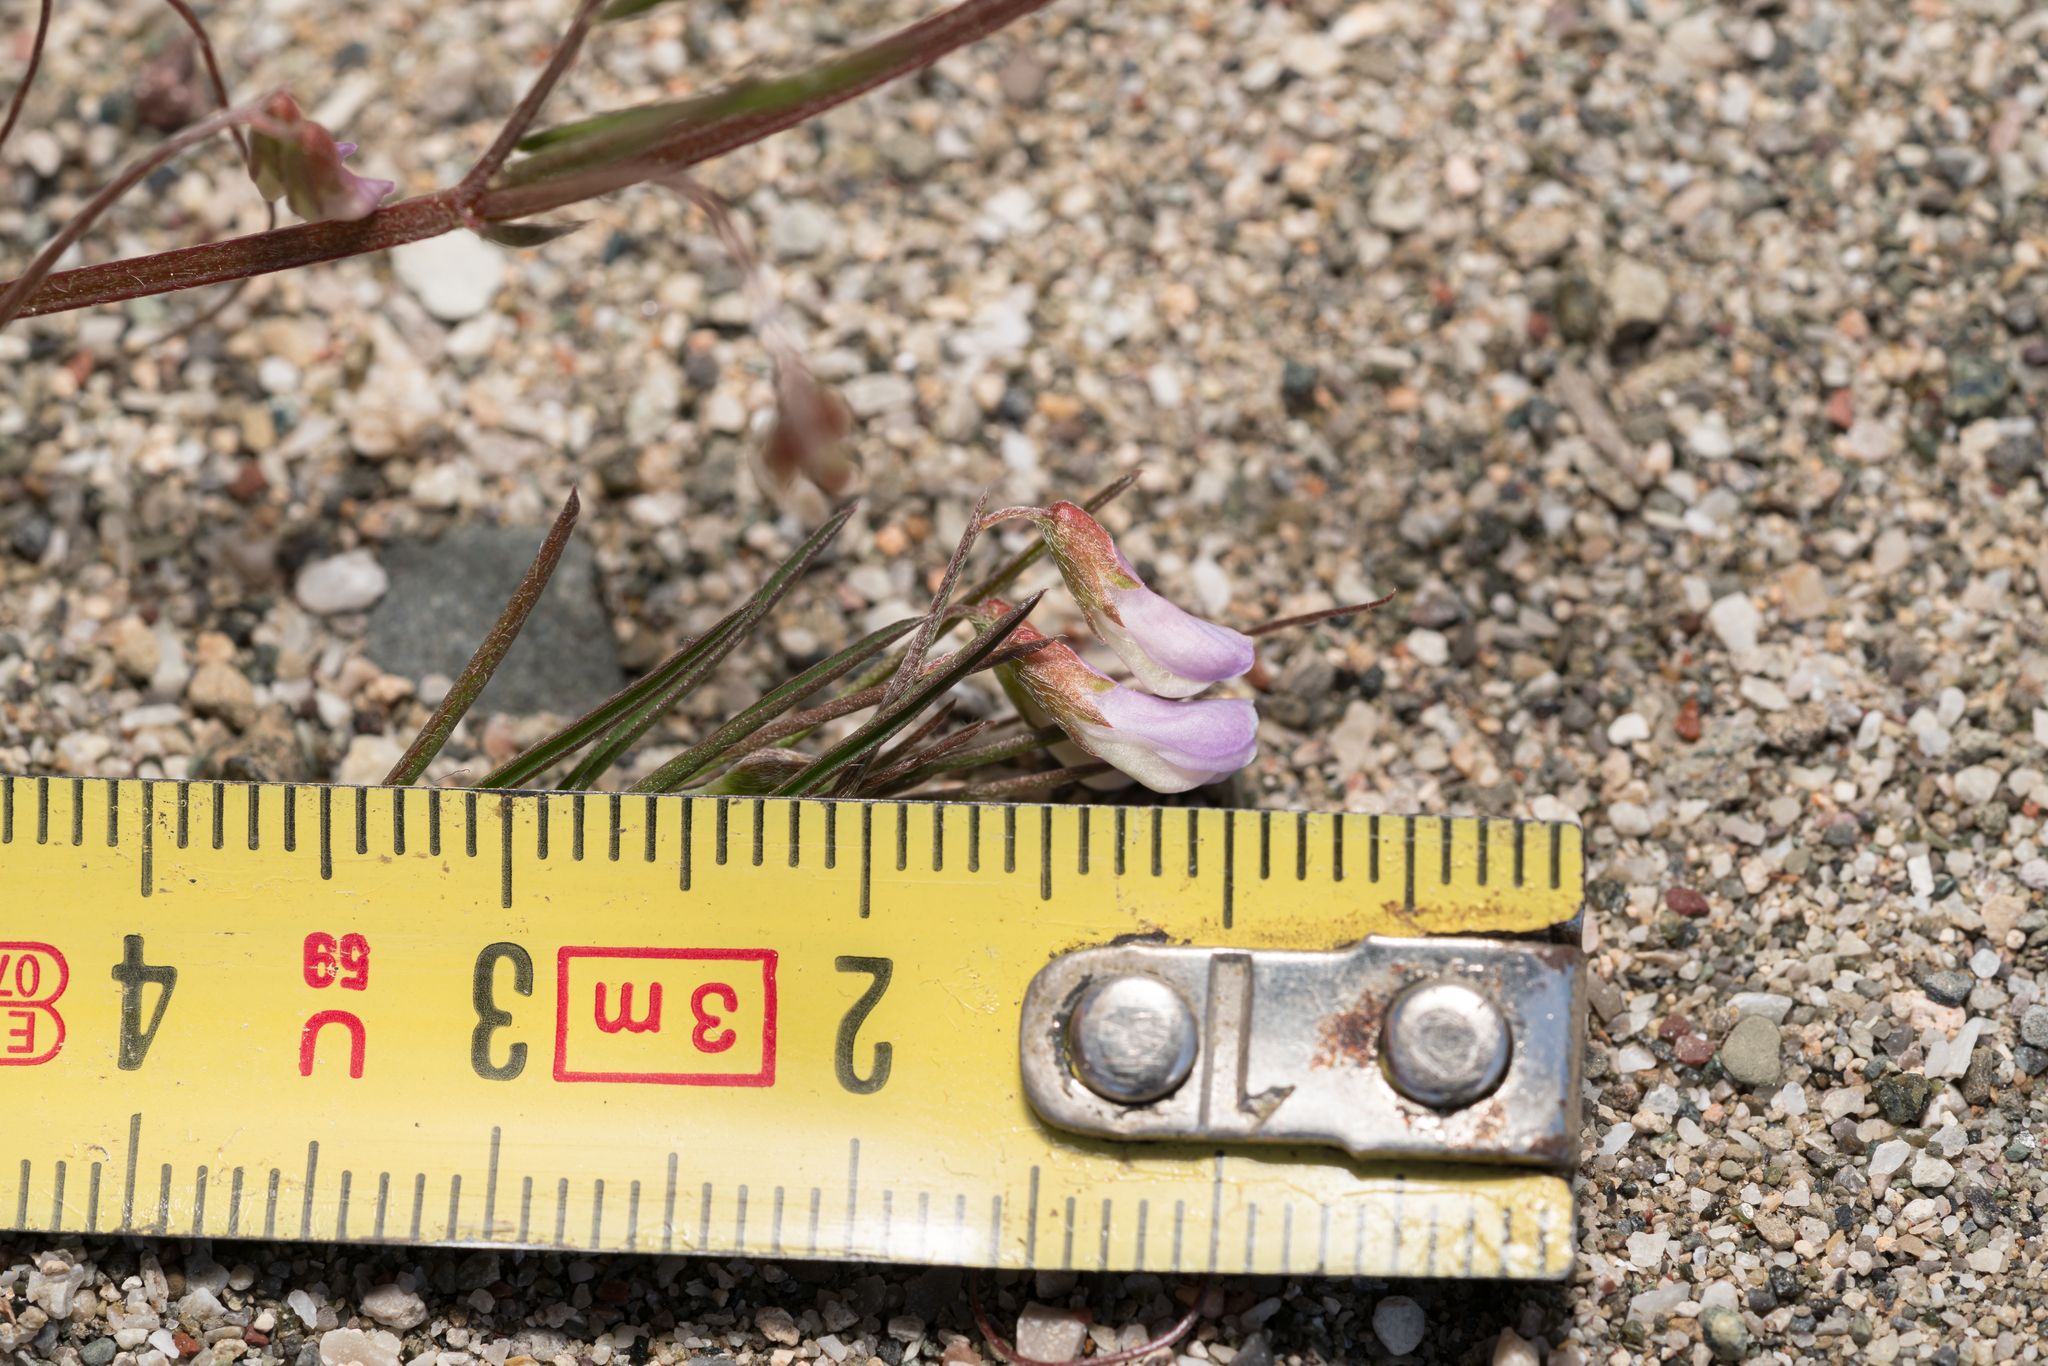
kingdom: Plantae
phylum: Tracheophyta
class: Magnoliopsida
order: Fabales
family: Fabaceae
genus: Vicia
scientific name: Vicia parviflora
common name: Slender tare
